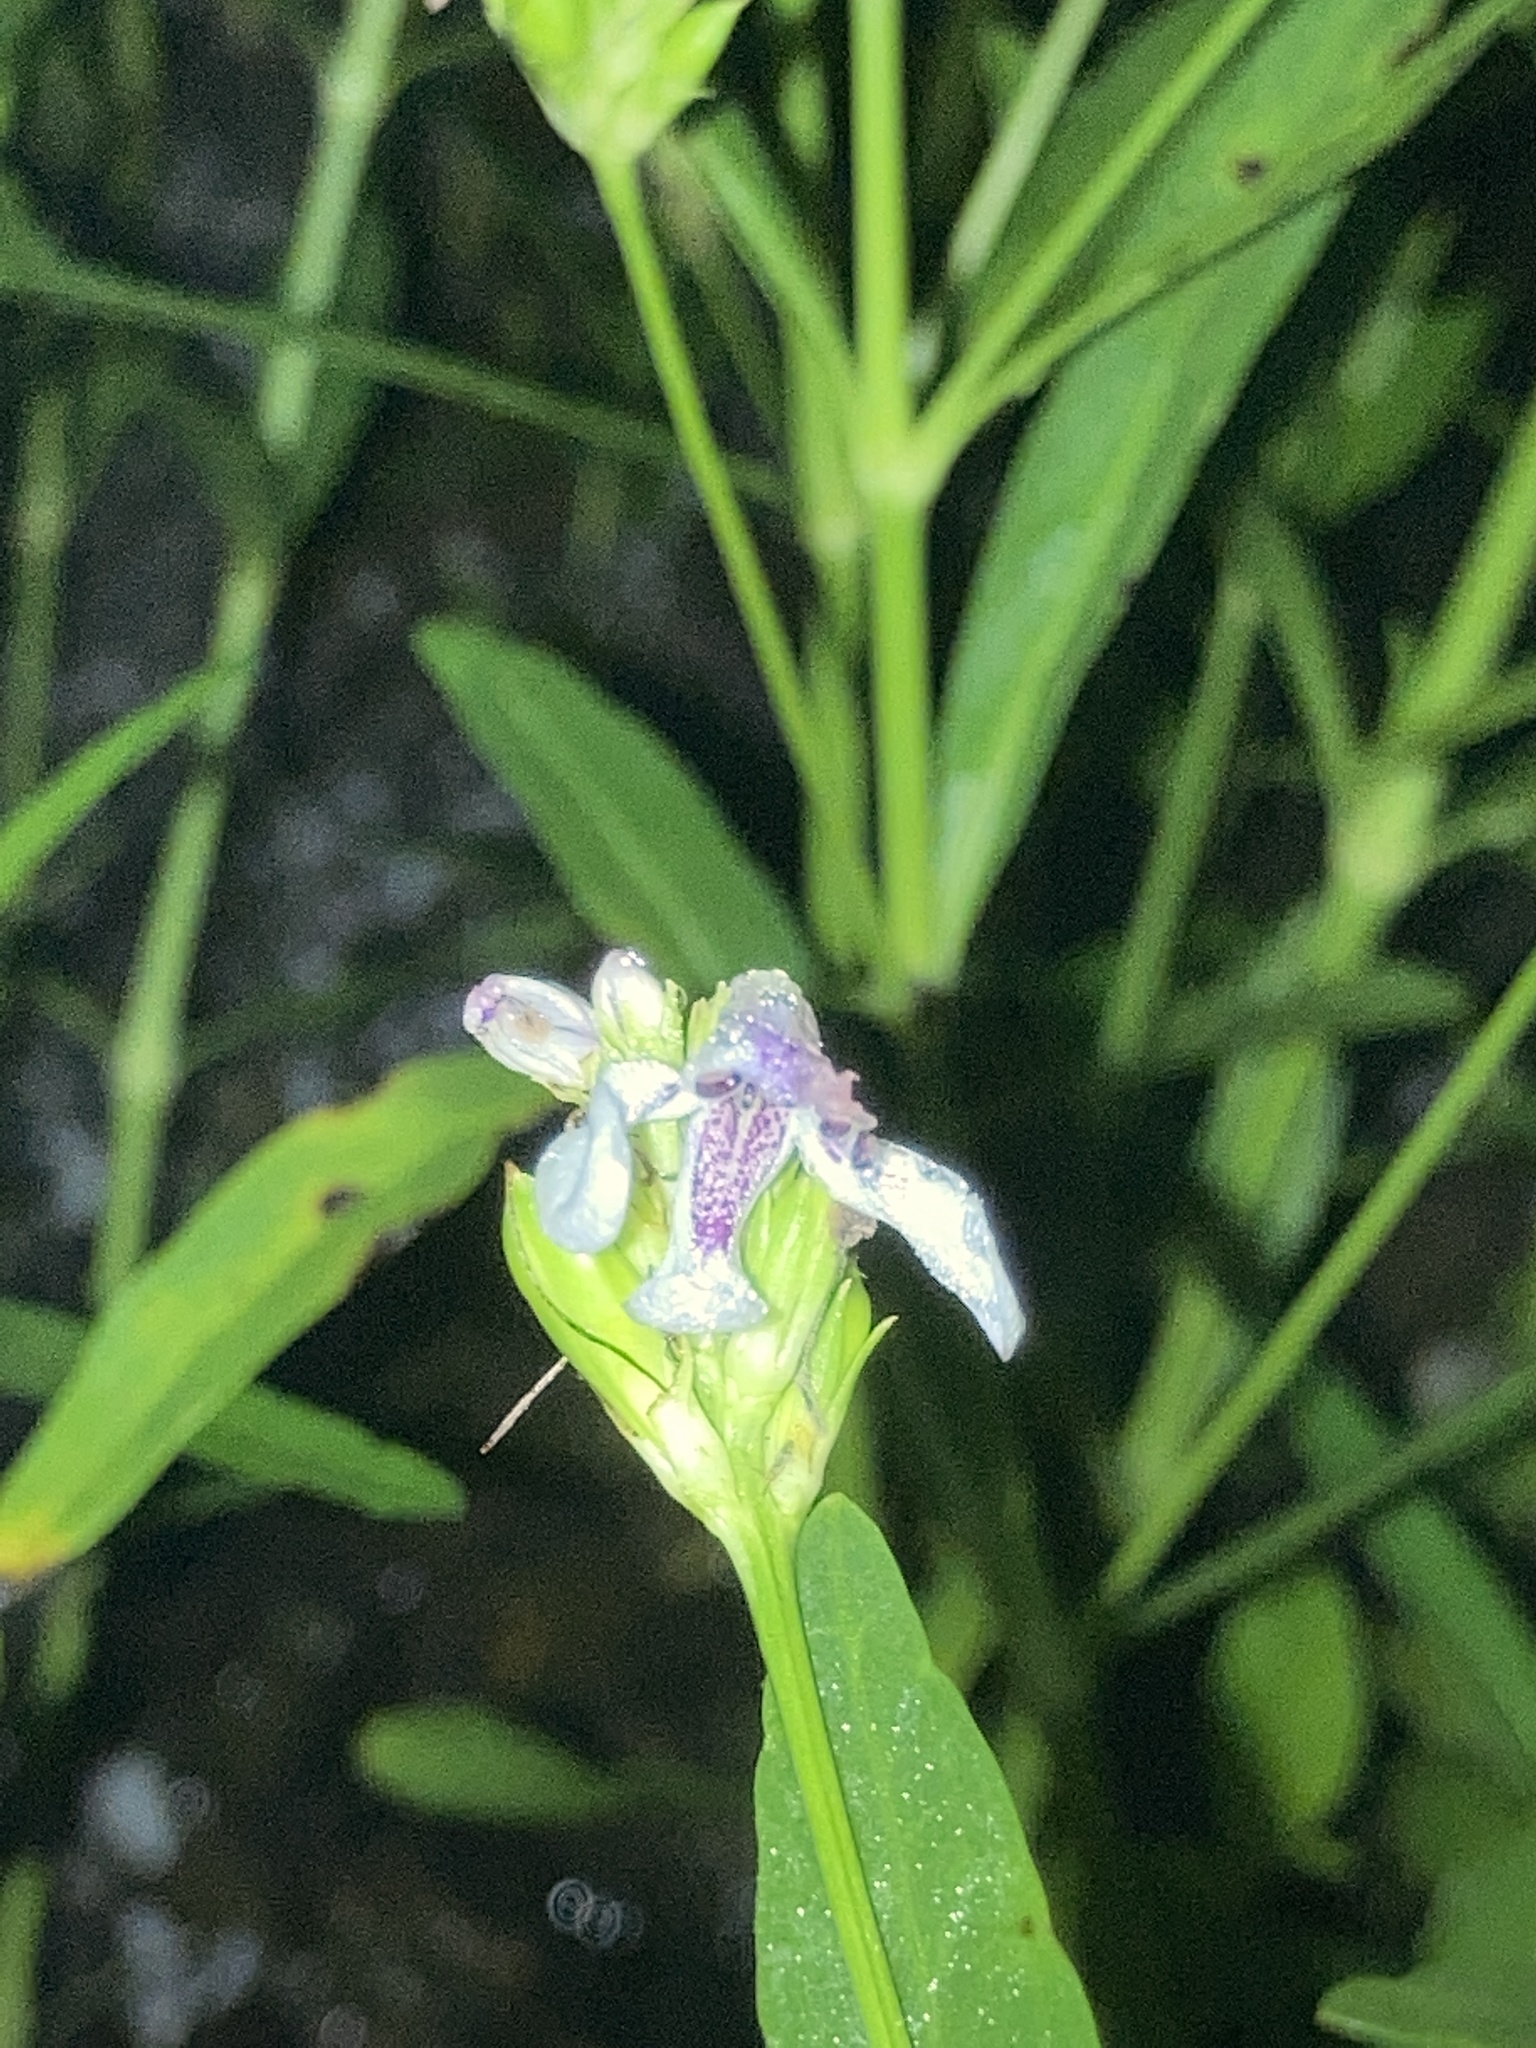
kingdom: Plantae
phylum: Tracheophyta
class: Magnoliopsida
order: Lamiales
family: Acanthaceae
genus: Dianthera
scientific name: Dianthera americana
